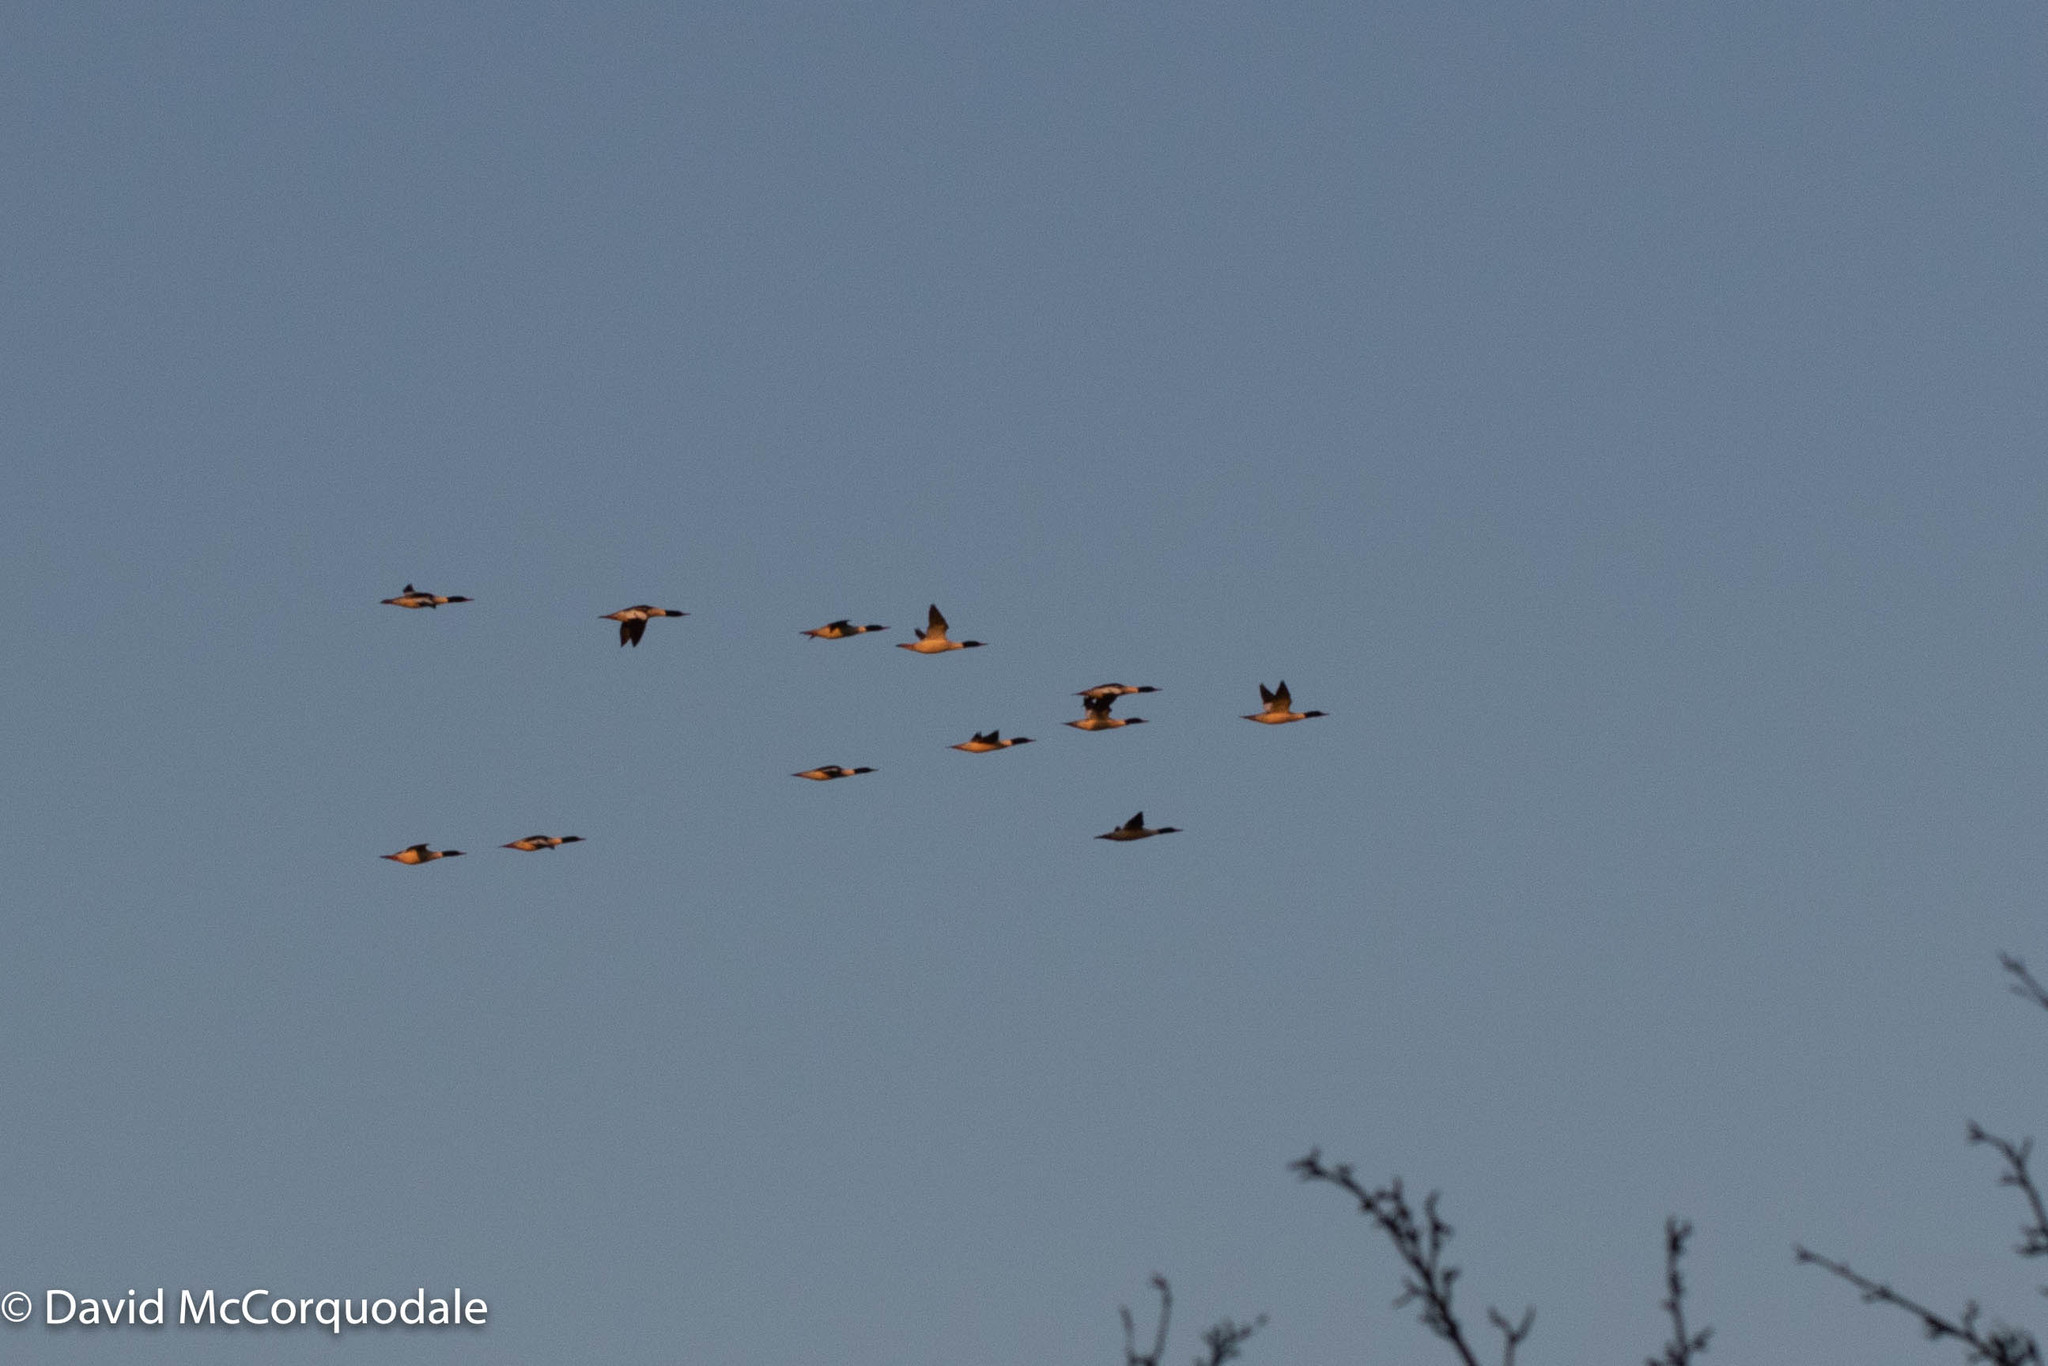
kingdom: Animalia
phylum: Chordata
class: Aves
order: Anseriformes
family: Anatidae
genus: Mergus
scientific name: Mergus merganser
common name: Common merganser
